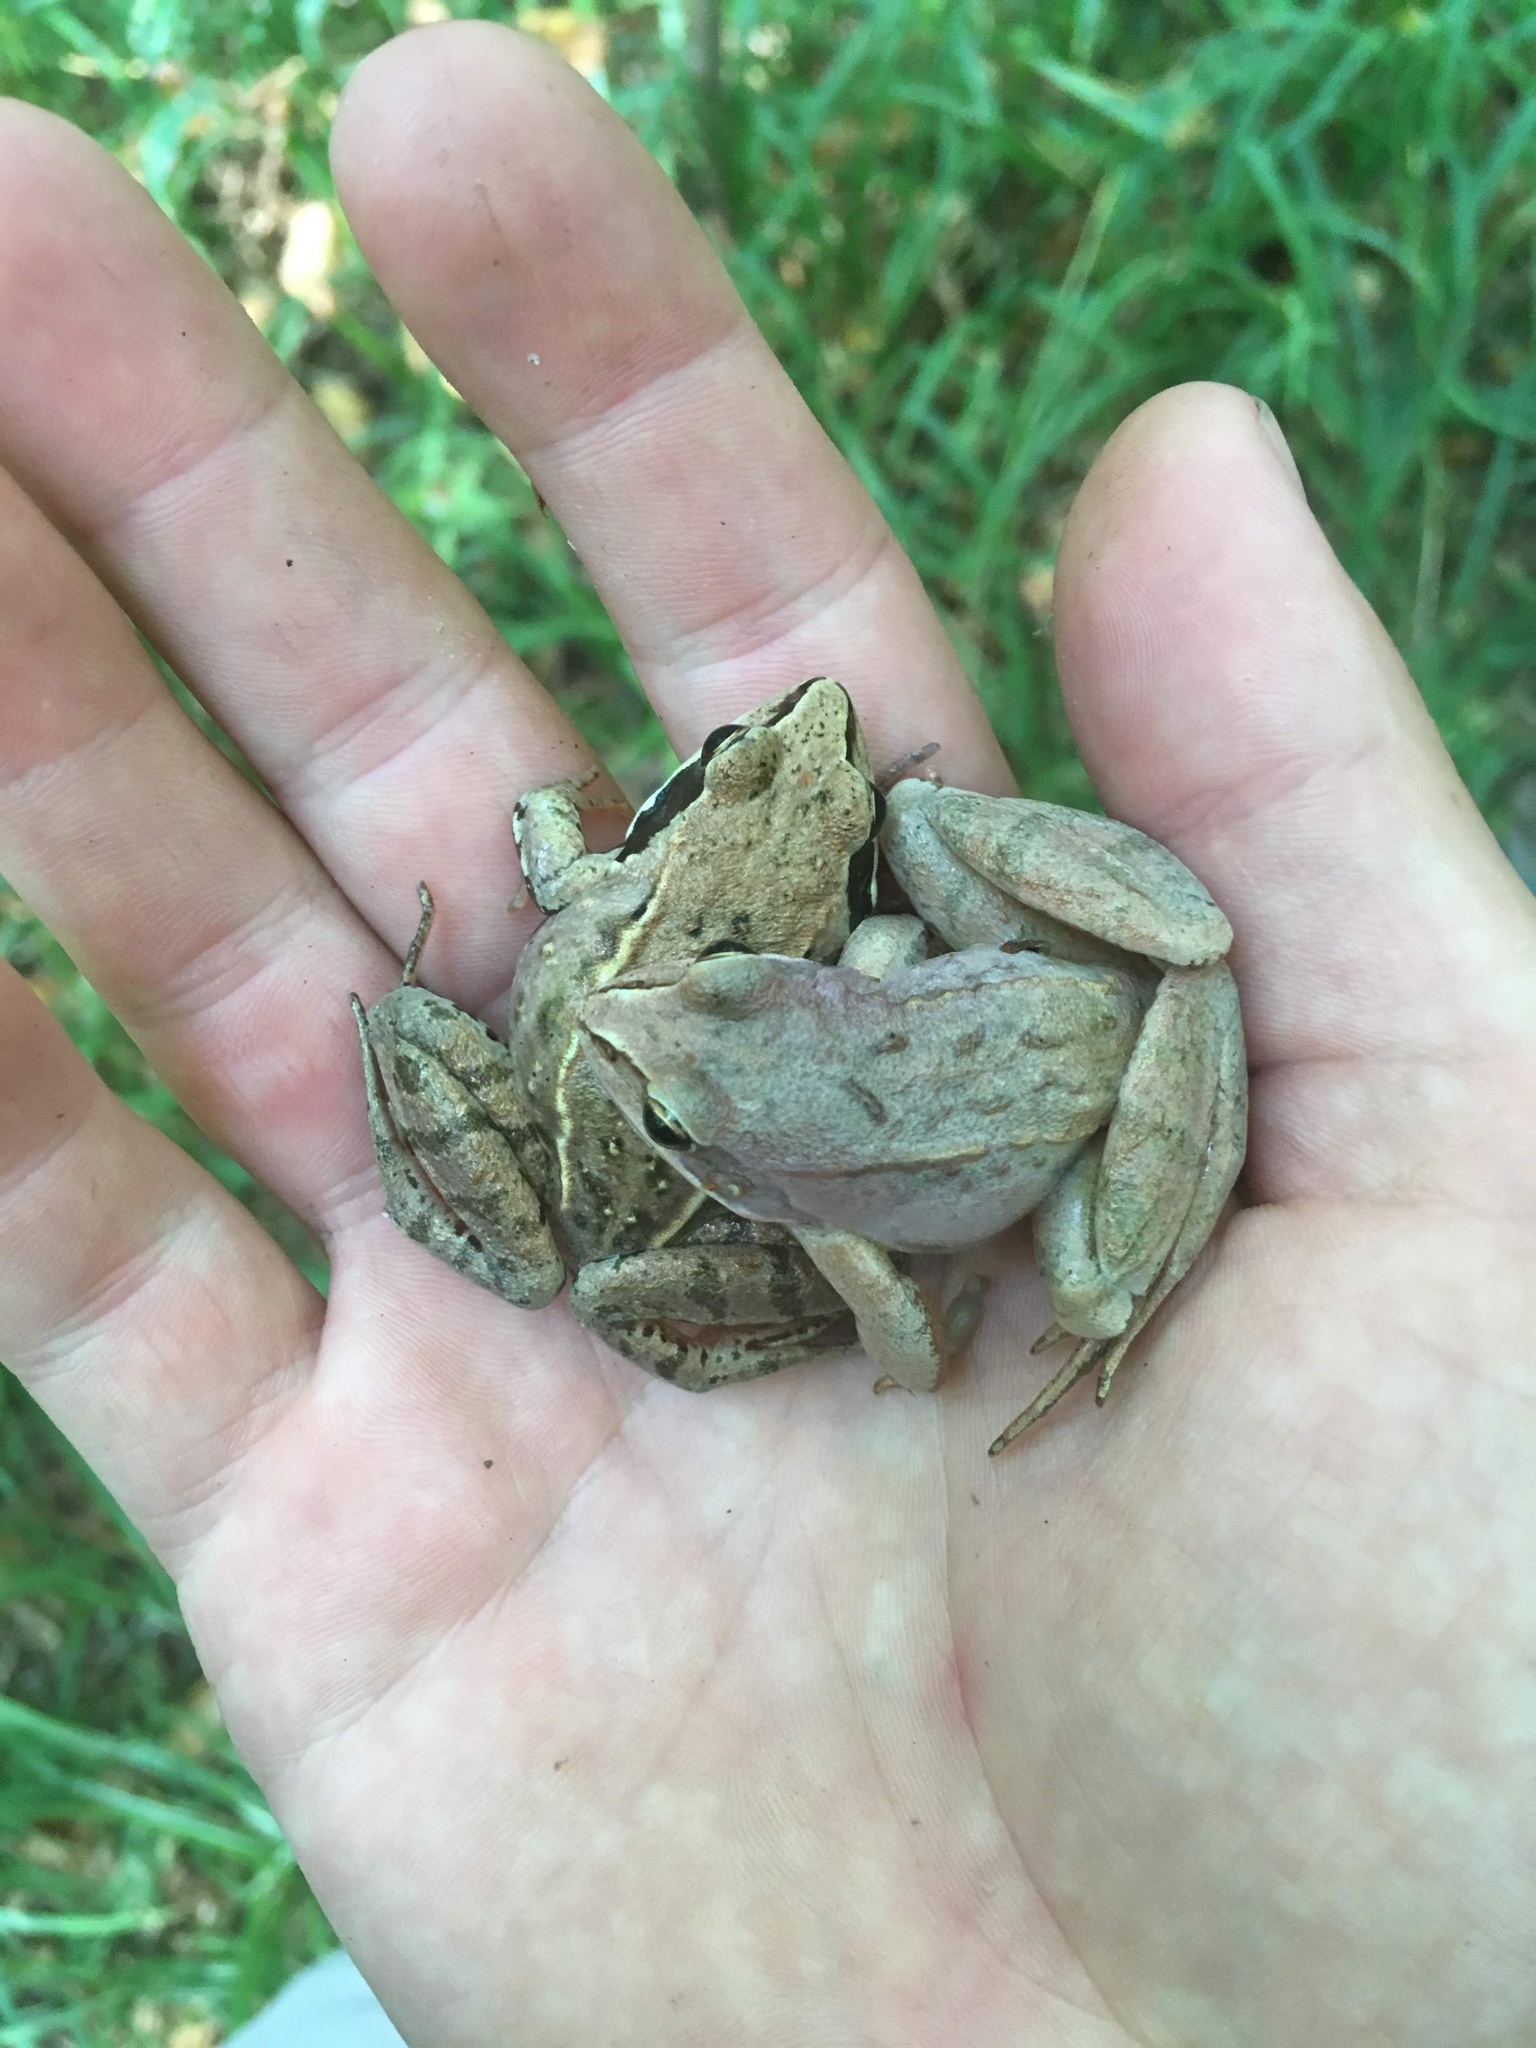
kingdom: Animalia
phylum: Chordata
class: Amphibia
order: Anura
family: Ranidae
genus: Rana
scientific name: Rana arvalis
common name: Moor frog
